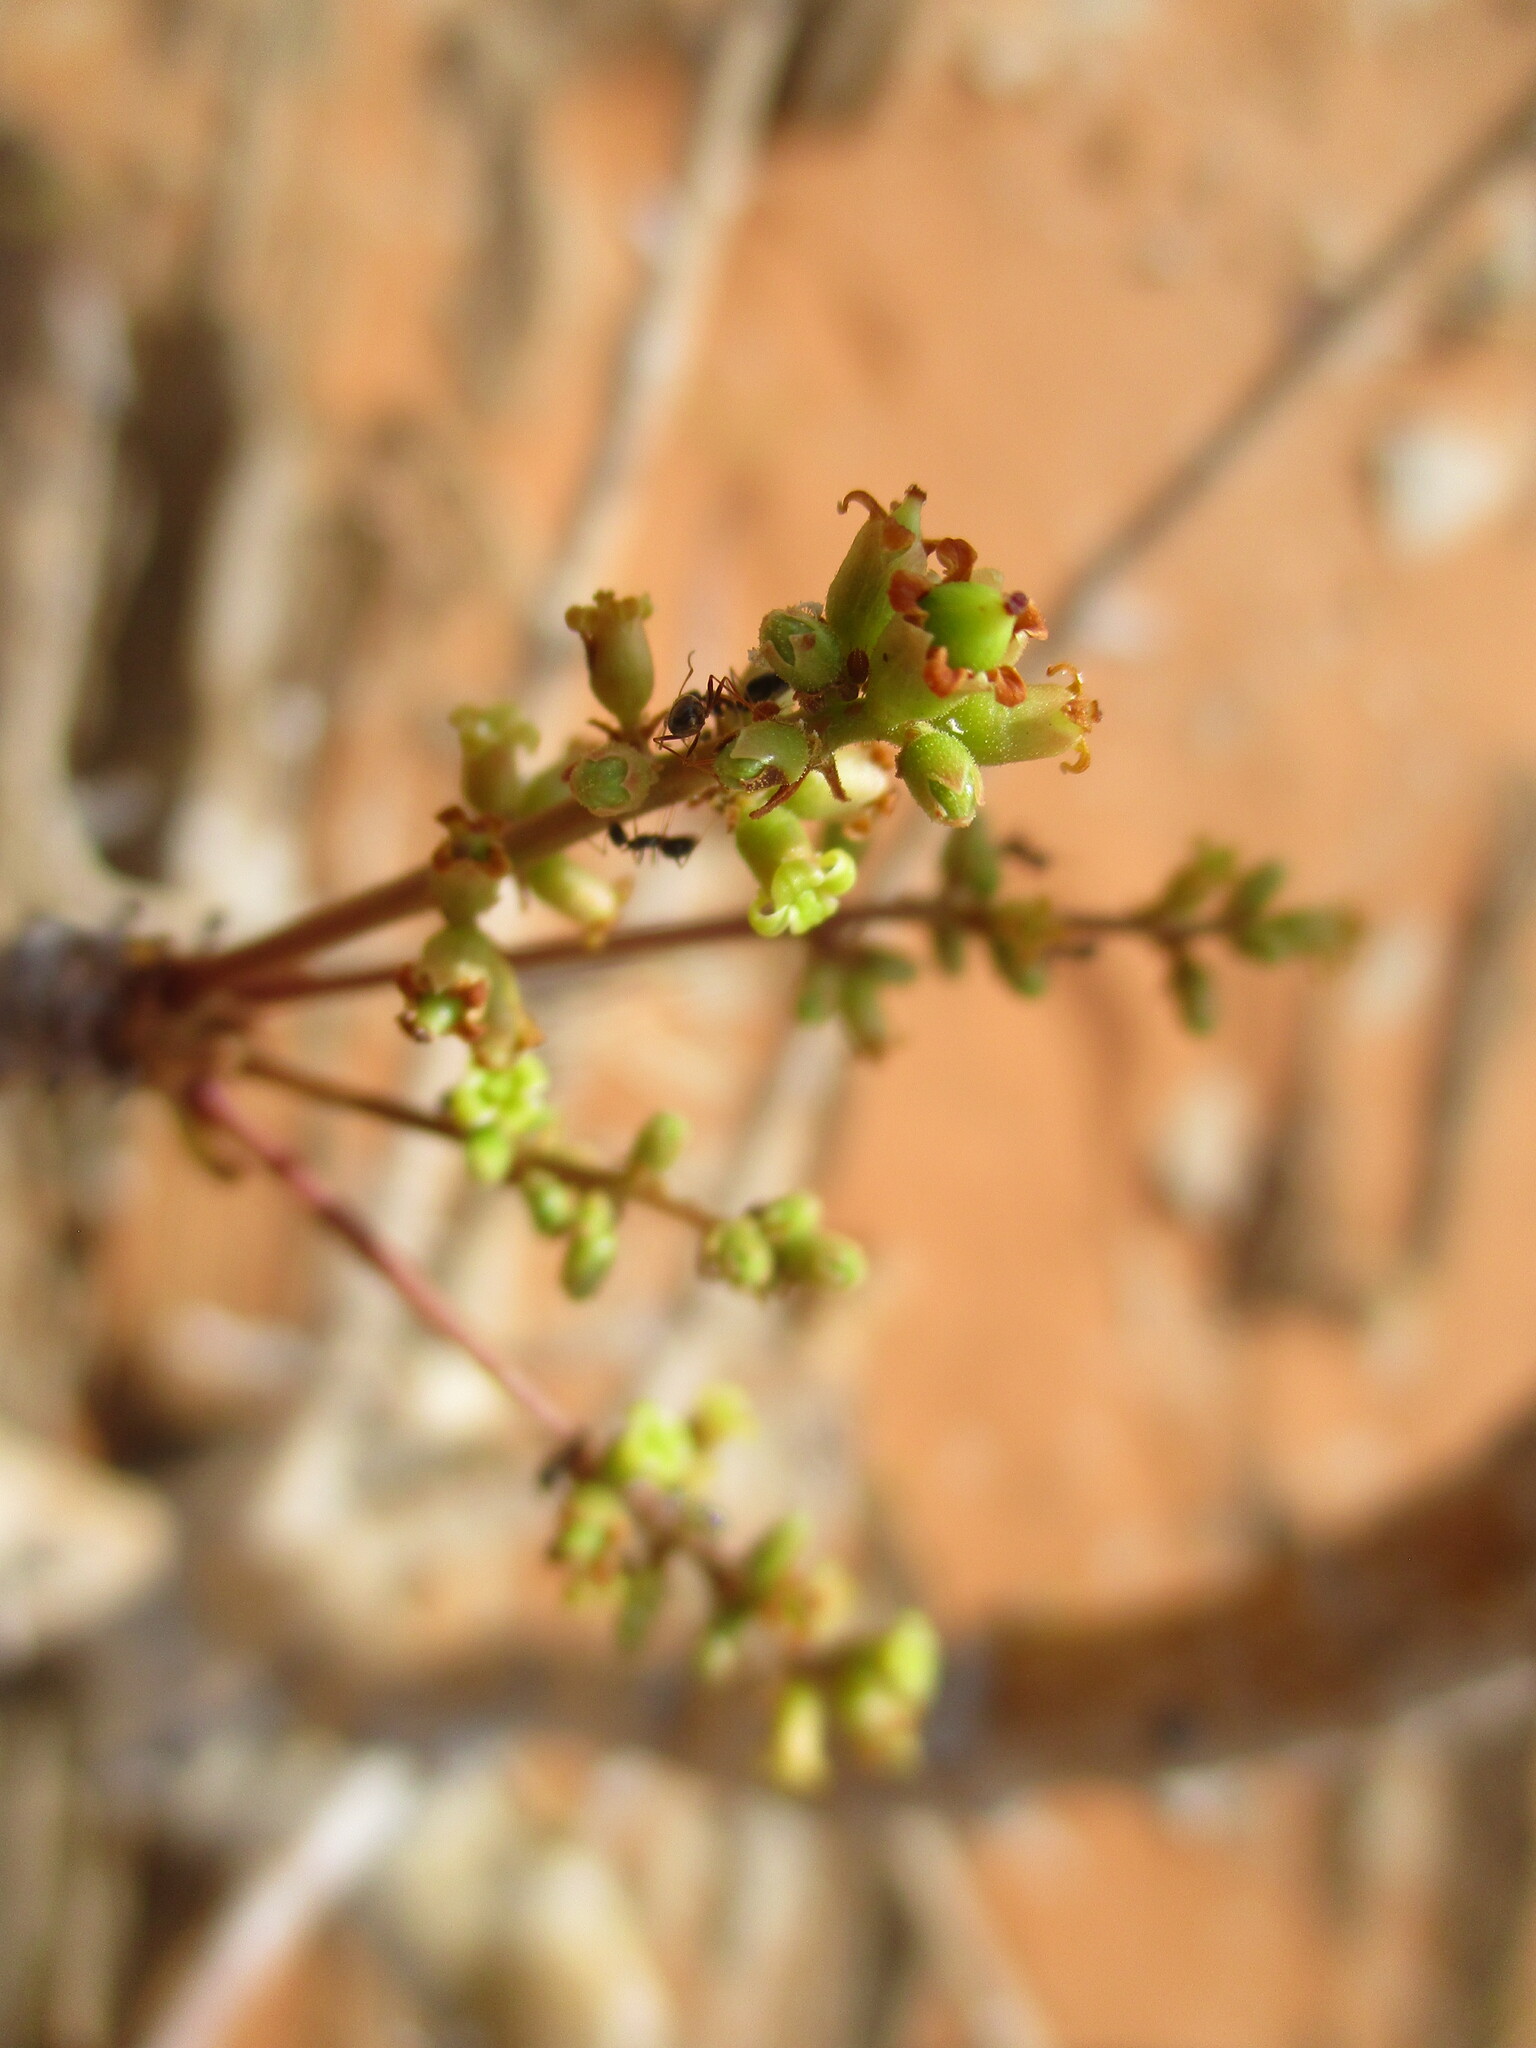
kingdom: Plantae
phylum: Tracheophyta
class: Magnoliopsida
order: Sapindales
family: Burseraceae
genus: Commiphora
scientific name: Commiphora saxicola
